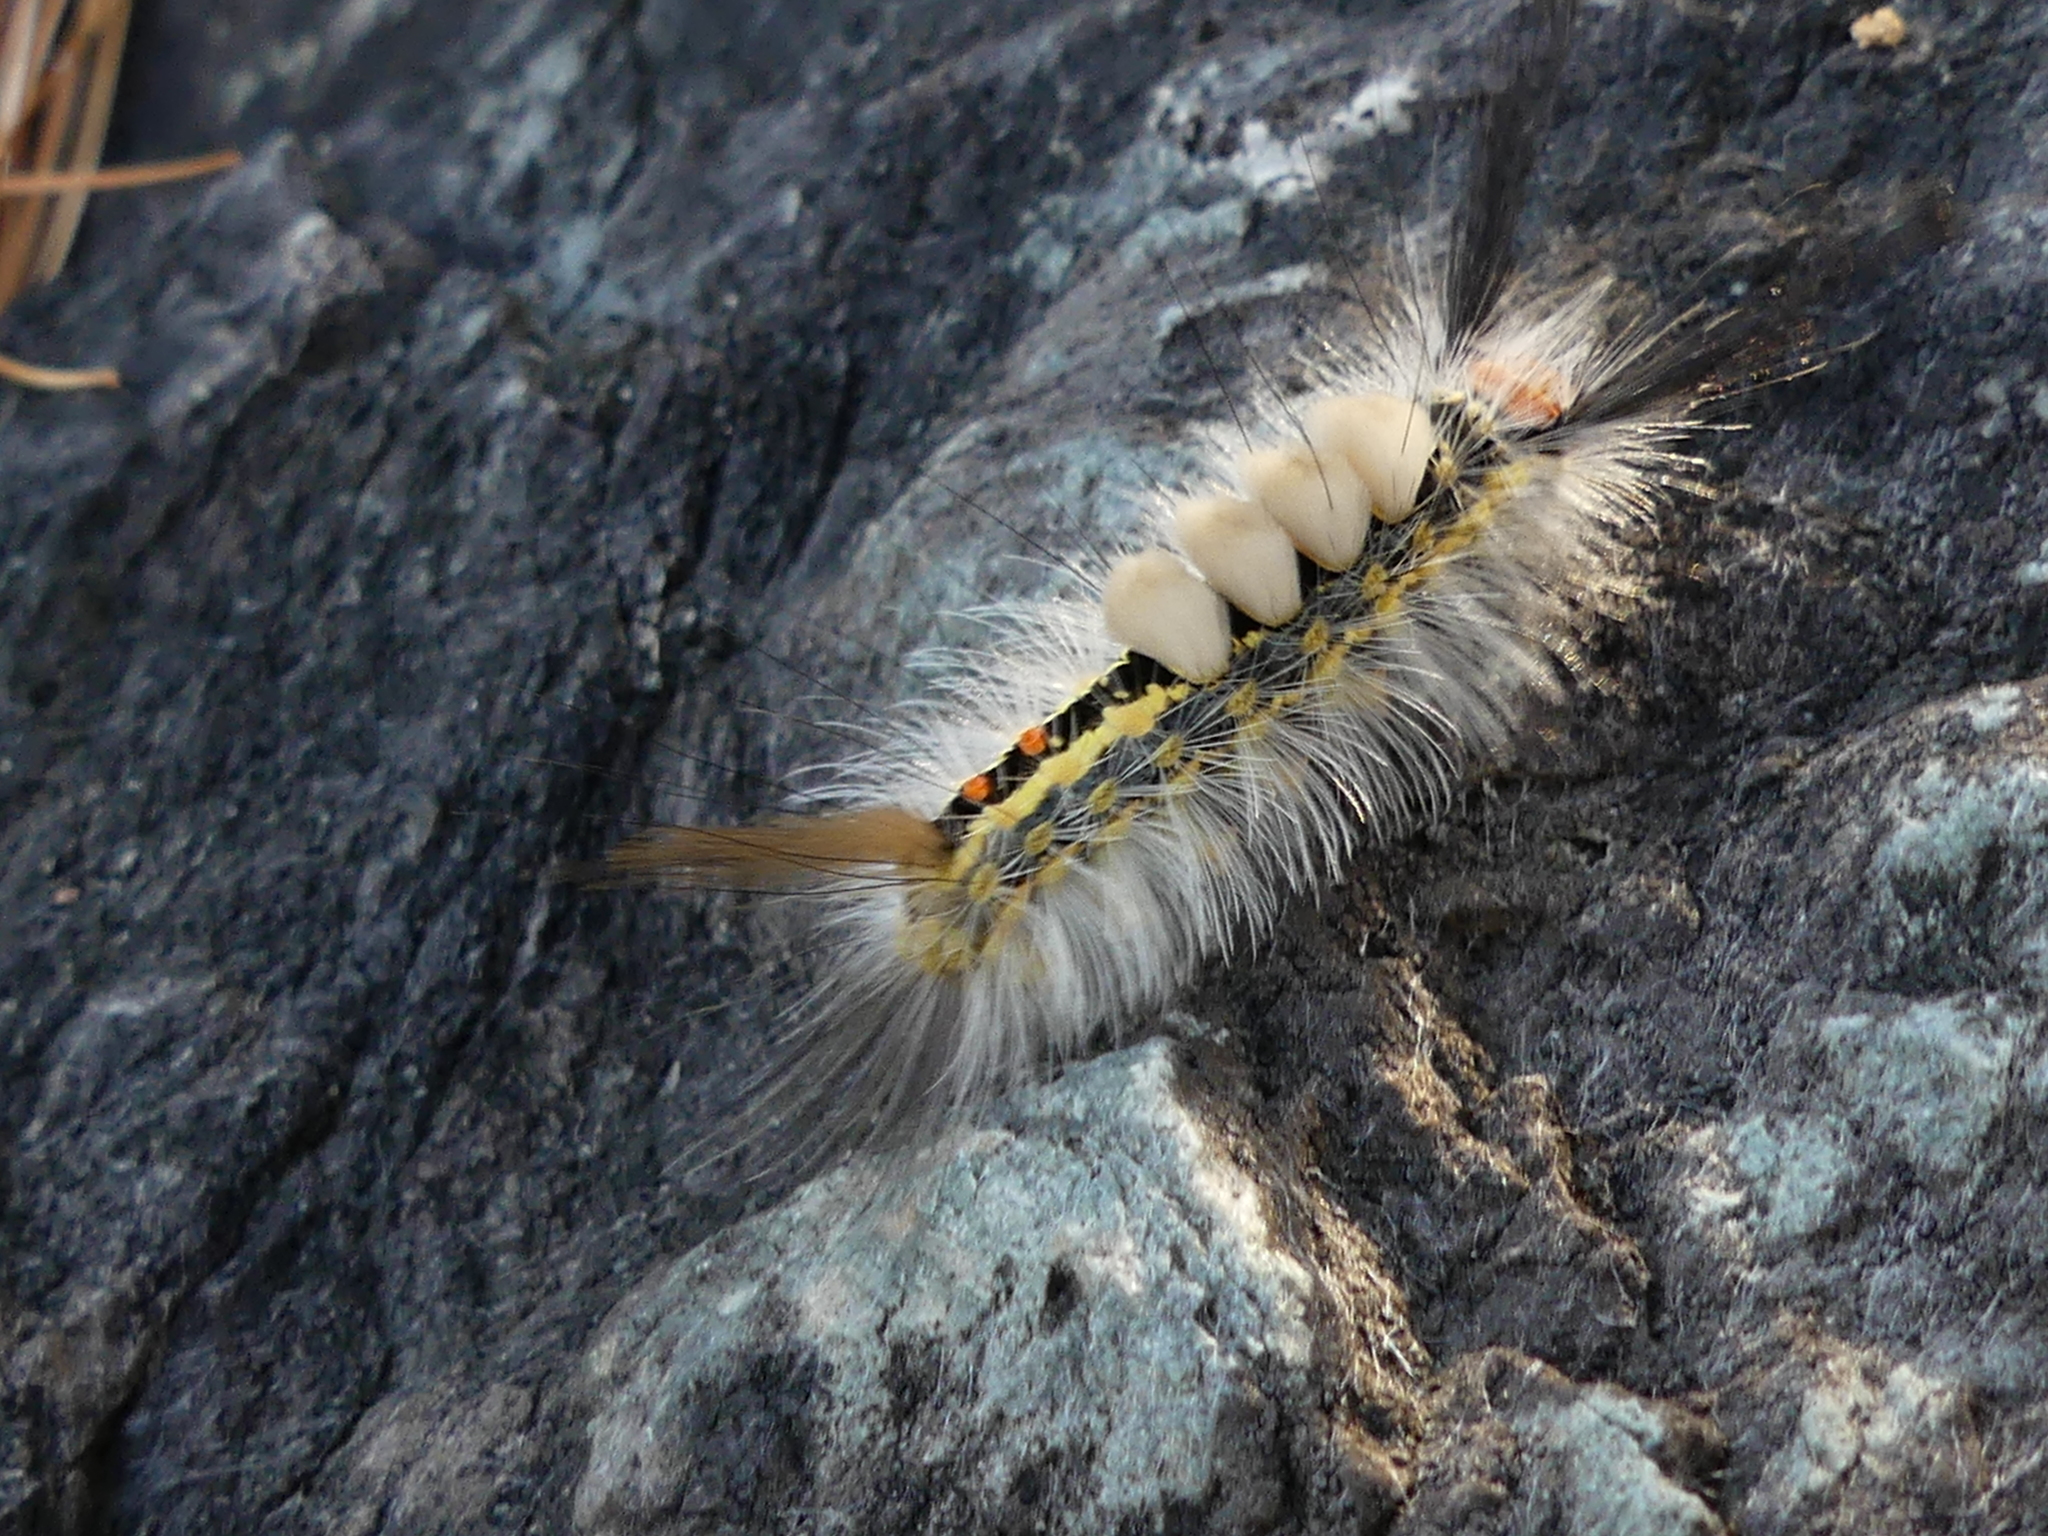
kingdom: Animalia
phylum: Arthropoda
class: Insecta
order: Lepidoptera
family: Erebidae
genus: Orgyia
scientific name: Orgyia leucostigma
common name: White-marked tussock moth
